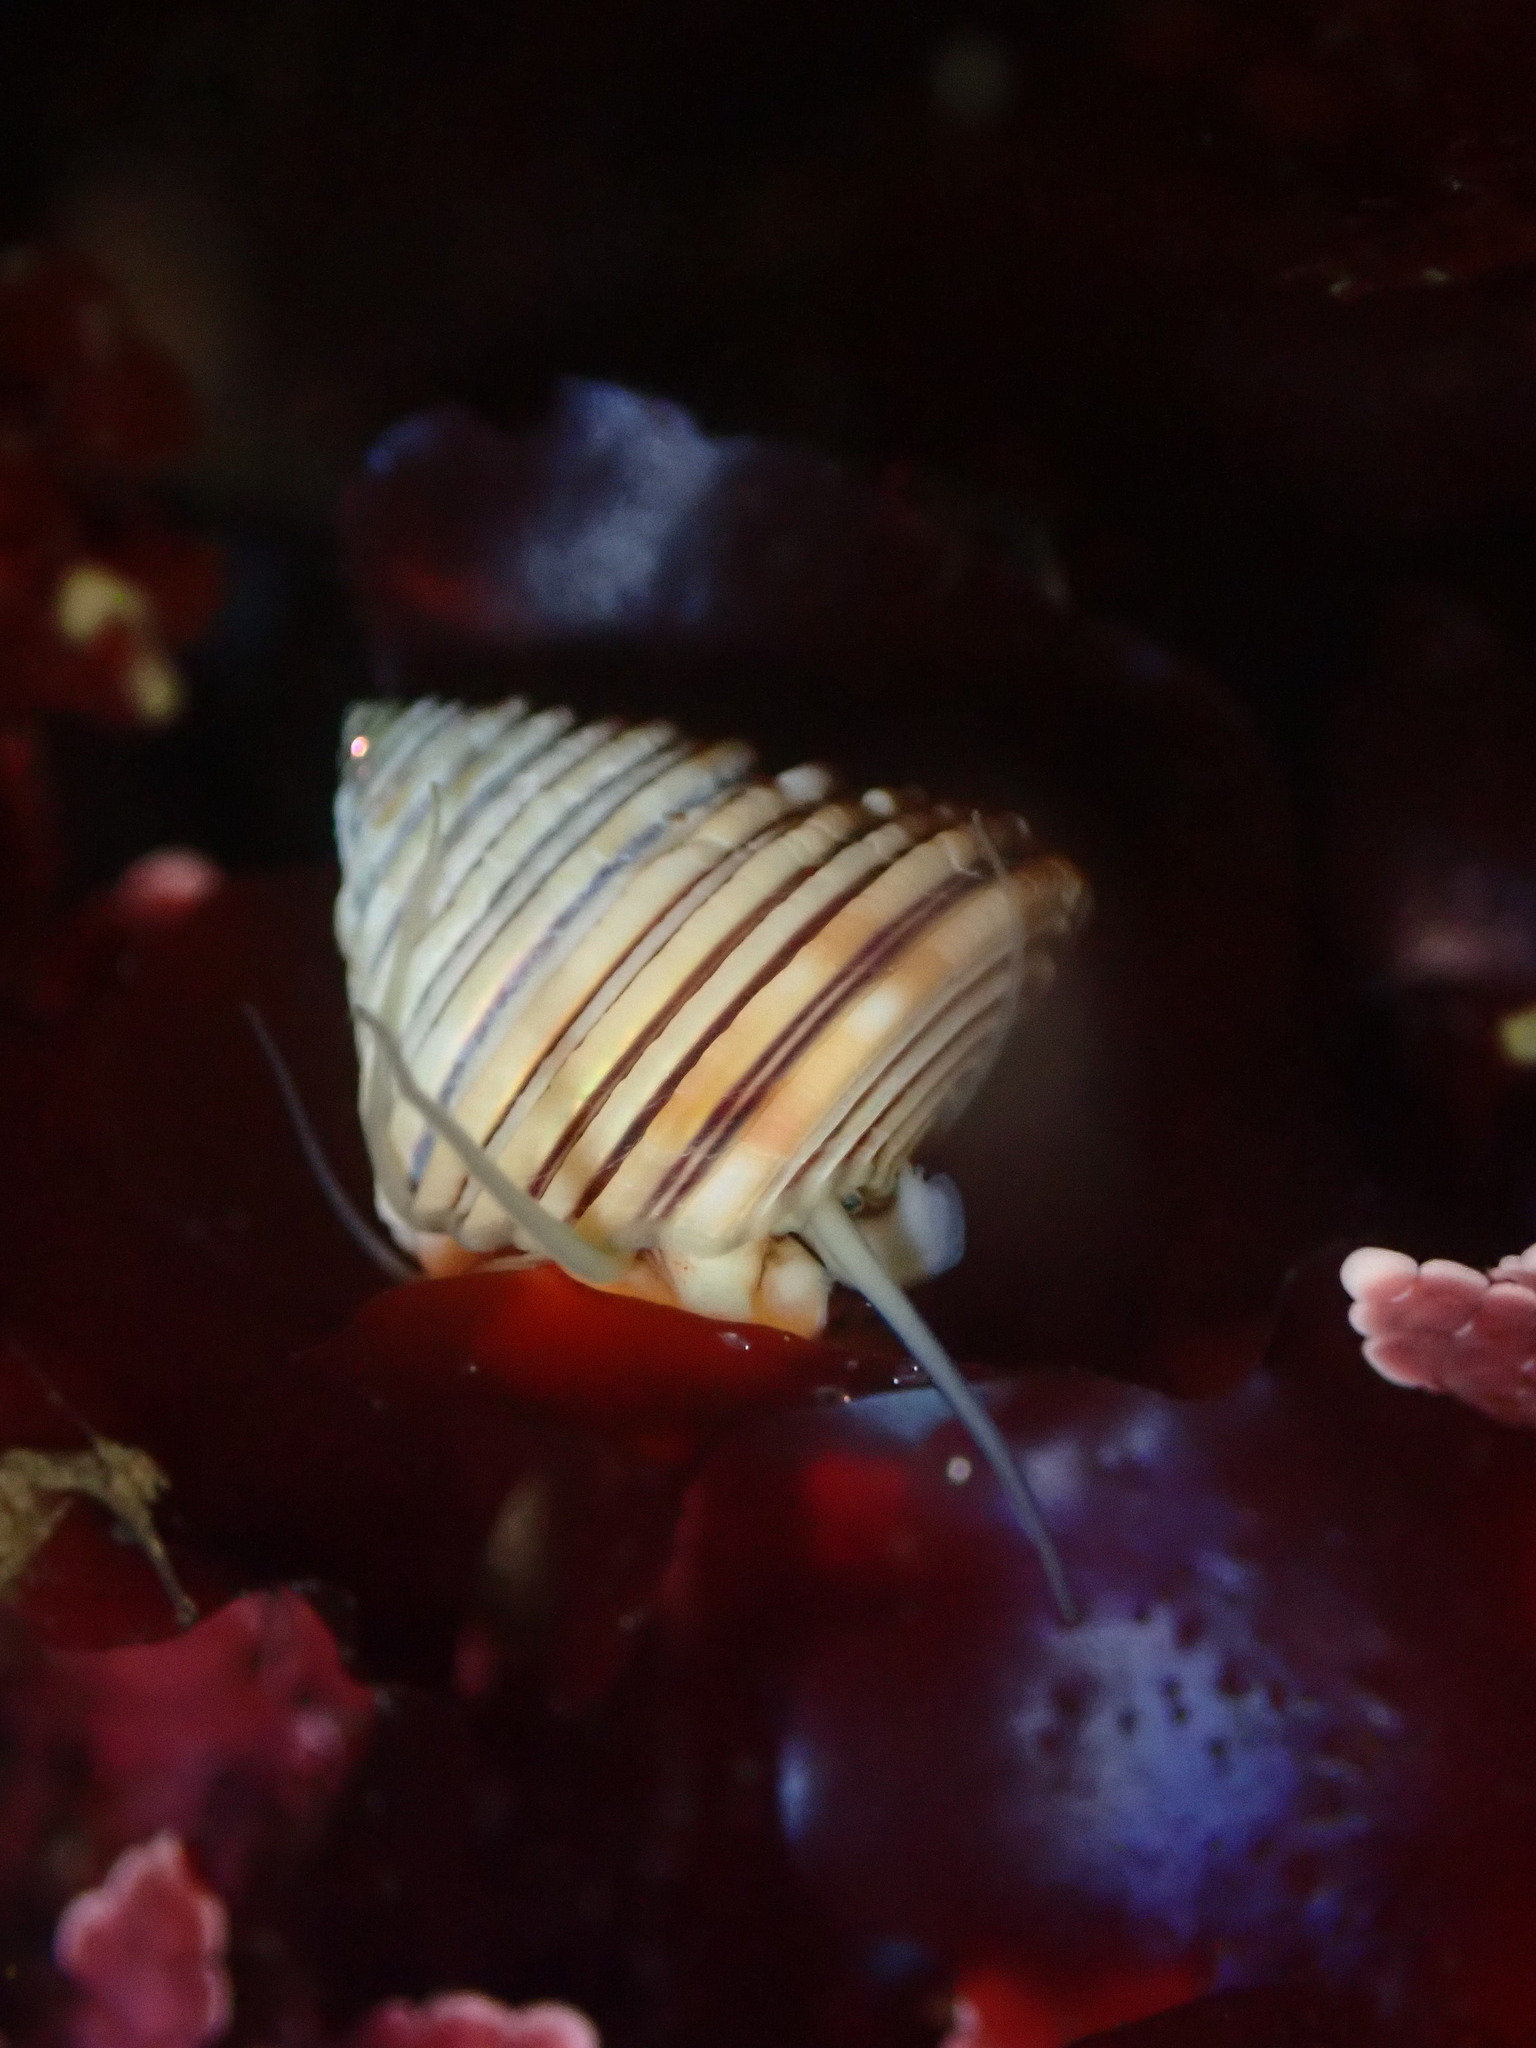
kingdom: Animalia
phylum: Mollusca
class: Gastropoda
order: Trochida
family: Calliostomatidae
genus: Calliostoma
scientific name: Calliostoma canaliculatum
